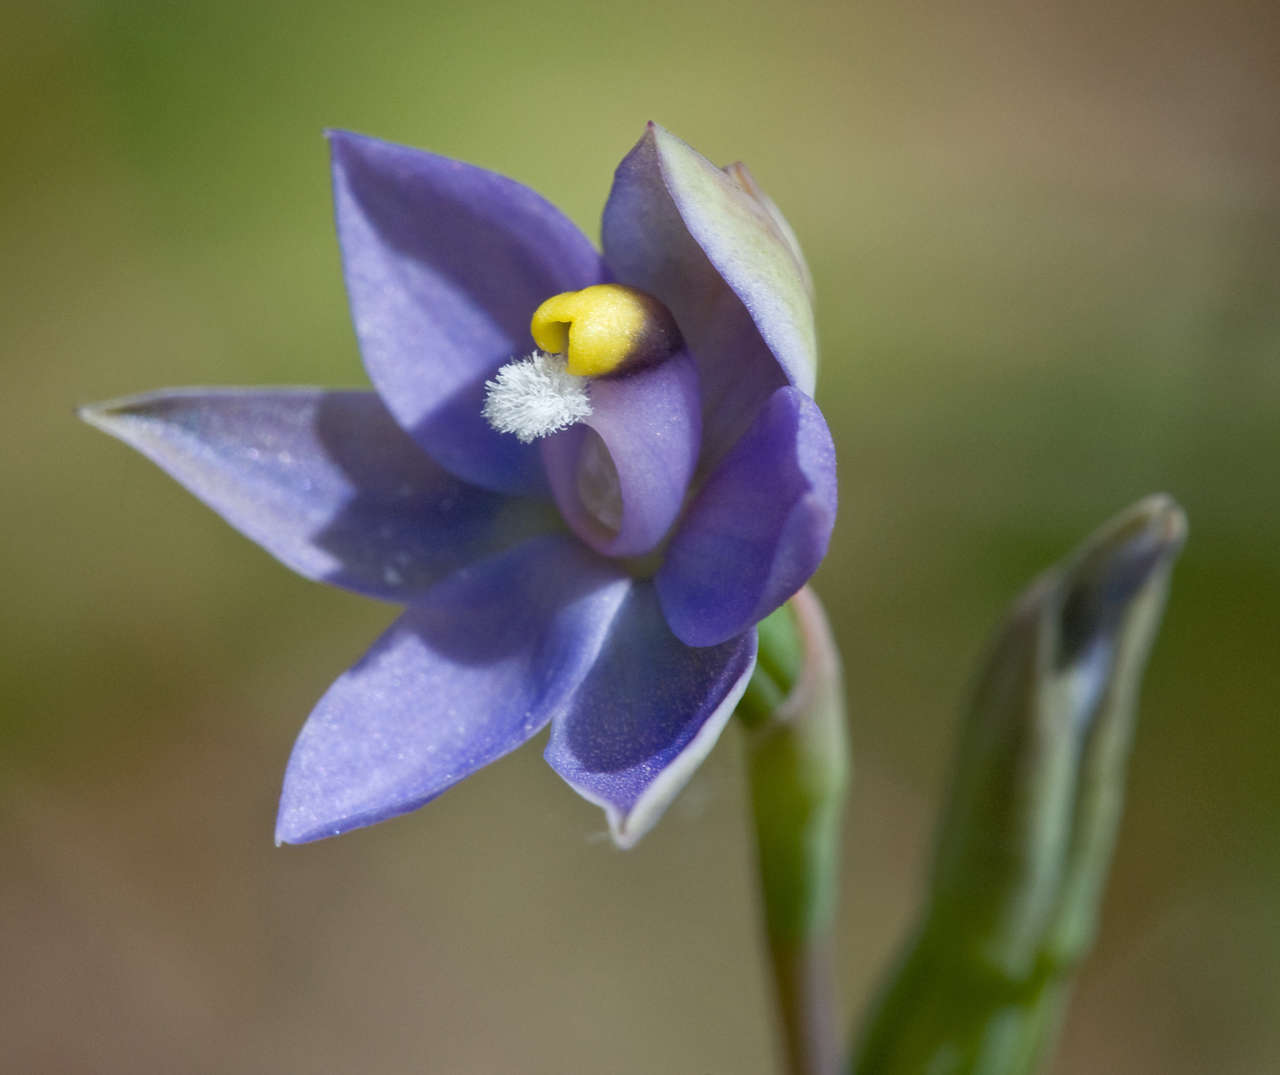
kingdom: Plantae
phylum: Tracheophyta
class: Liliopsida
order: Asparagales
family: Orchidaceae
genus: Thelymitra
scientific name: Thelymitra arenaria
